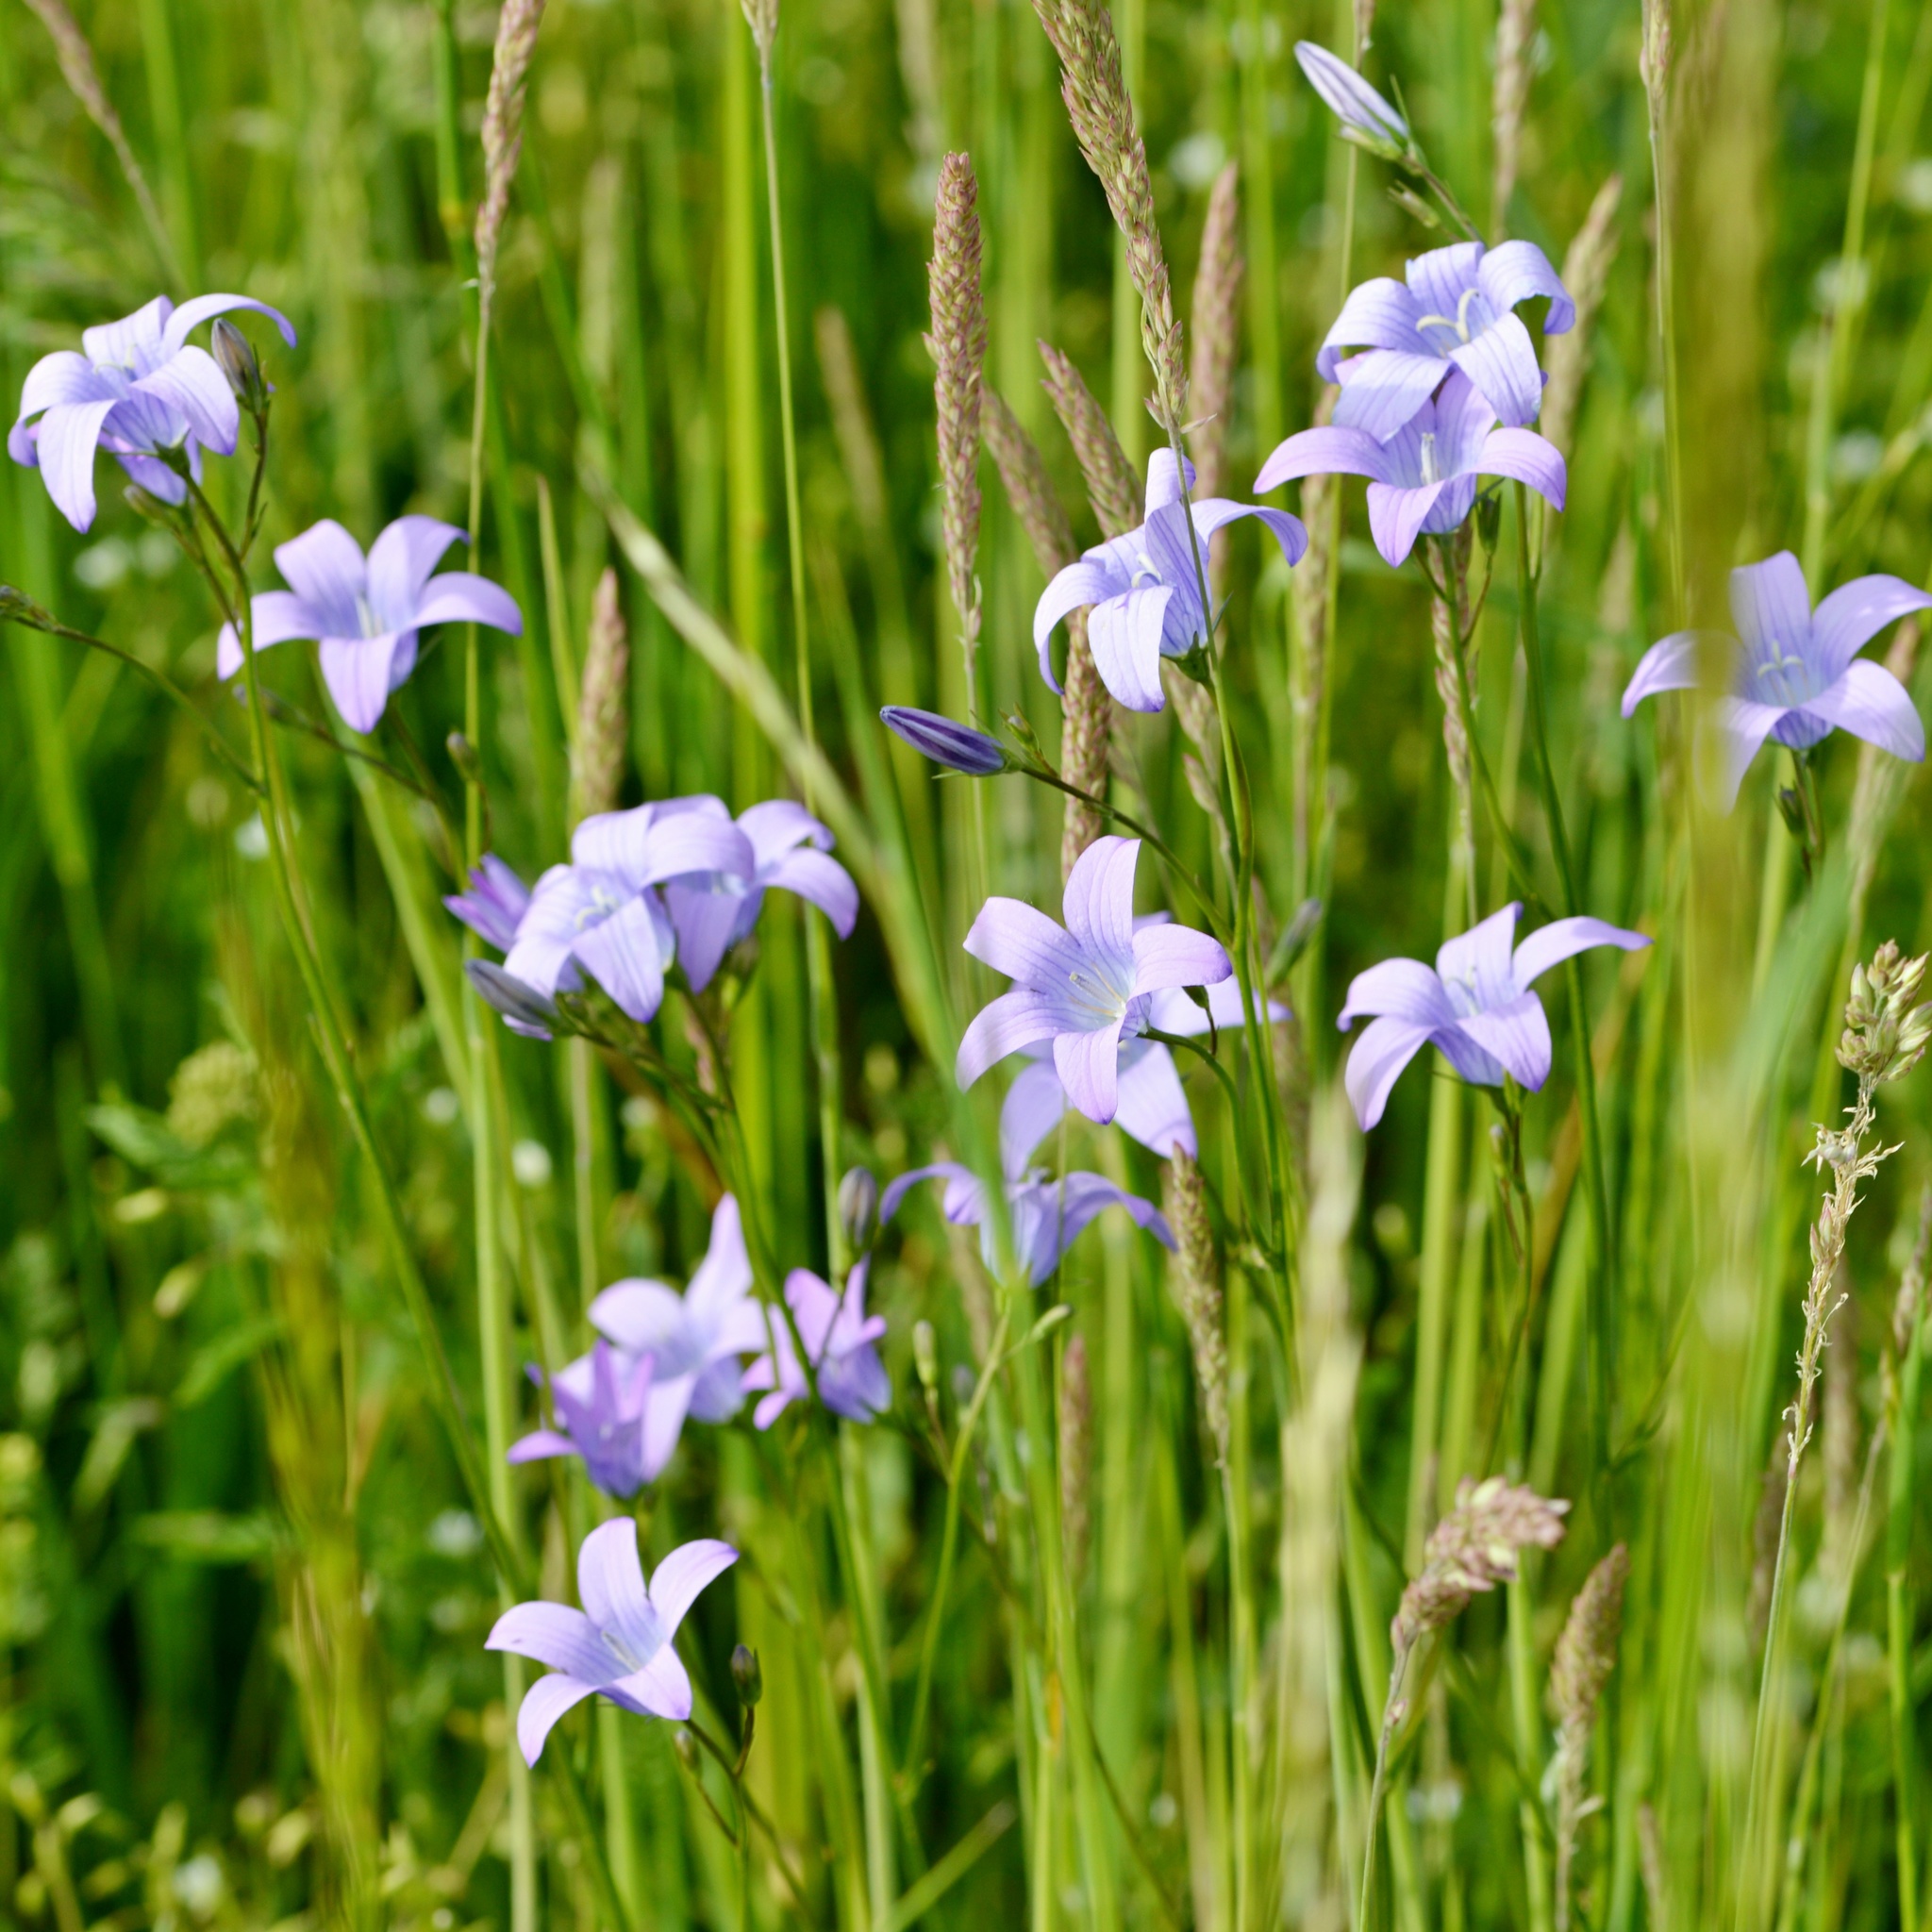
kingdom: Plantae
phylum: Tracheophyta
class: Magnoliopsida
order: Asterales
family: Campanulaceae
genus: Campanula
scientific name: Campanula patula
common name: Spreading bellflower
